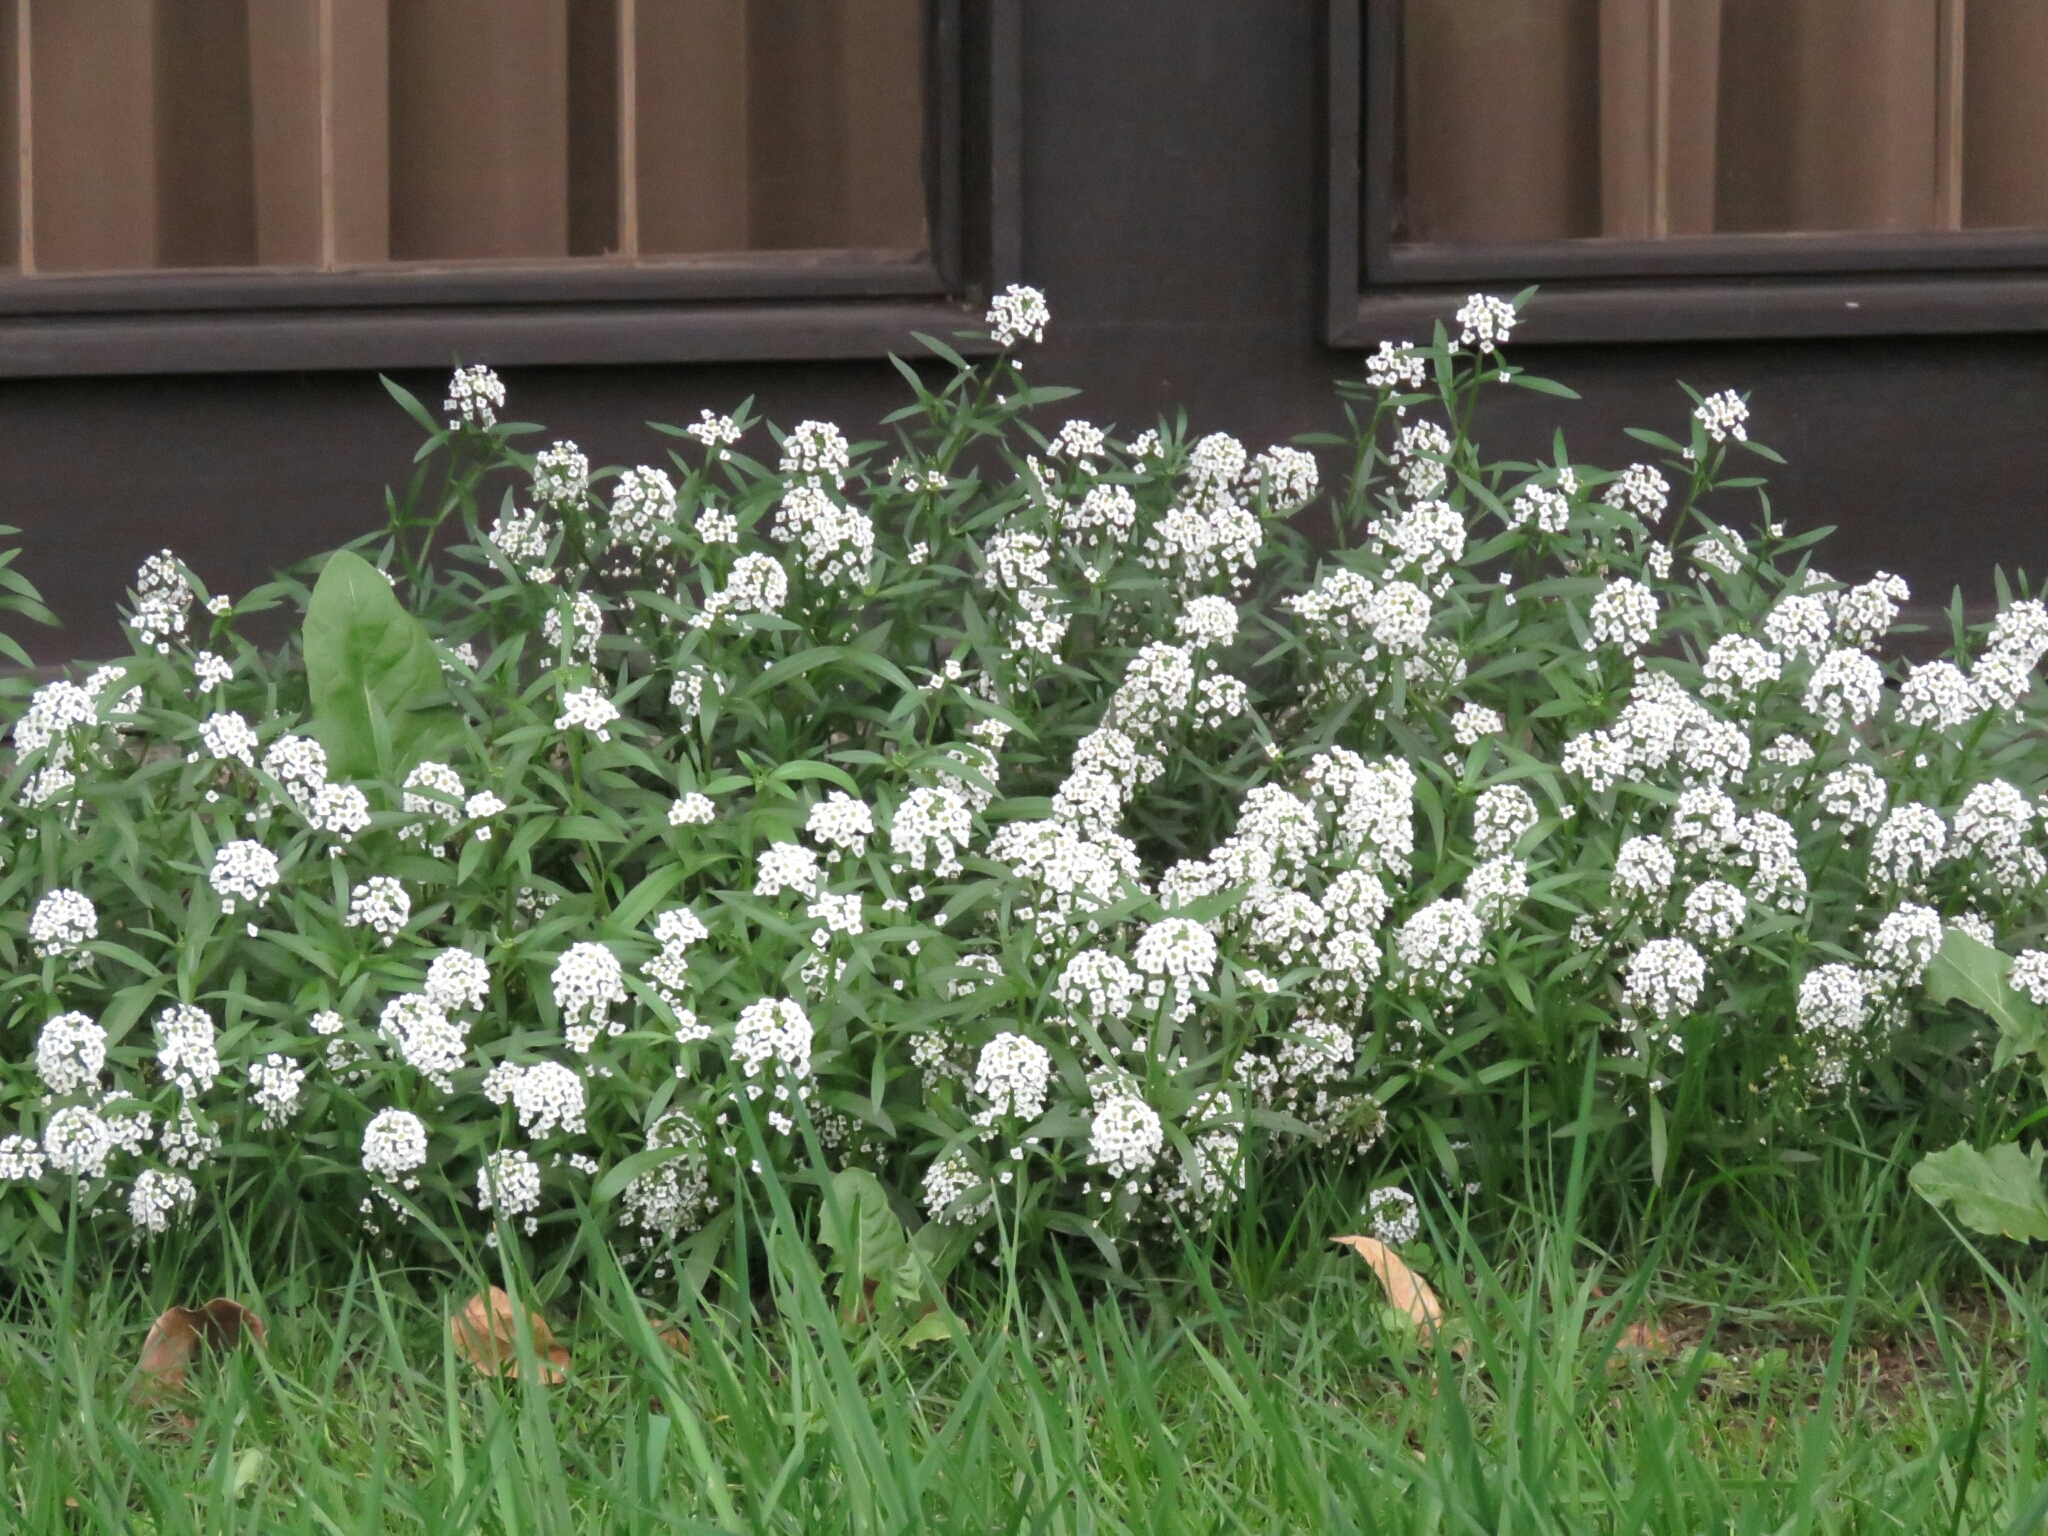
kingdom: Plantae
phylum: Tracheophyta
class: Magnoliopsida
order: Brassicales
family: Brassicaceae
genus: Lobularia
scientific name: Lobularia maritima
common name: Sweet alison
